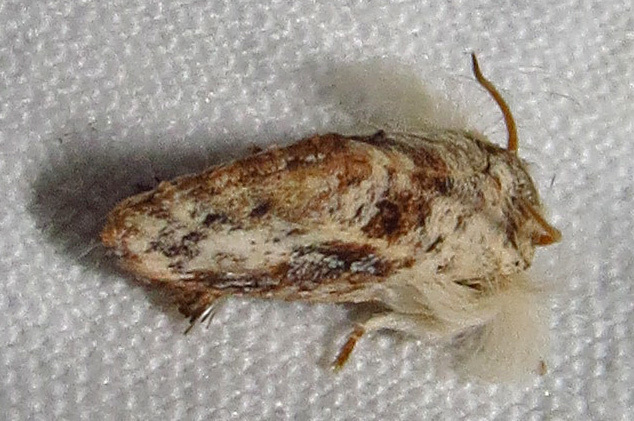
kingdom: Animalia
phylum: Arthropoda
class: Insecta
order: Lepidoptera
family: Tineidae
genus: Acrolophus
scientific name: Acrolophus mycetophagus
